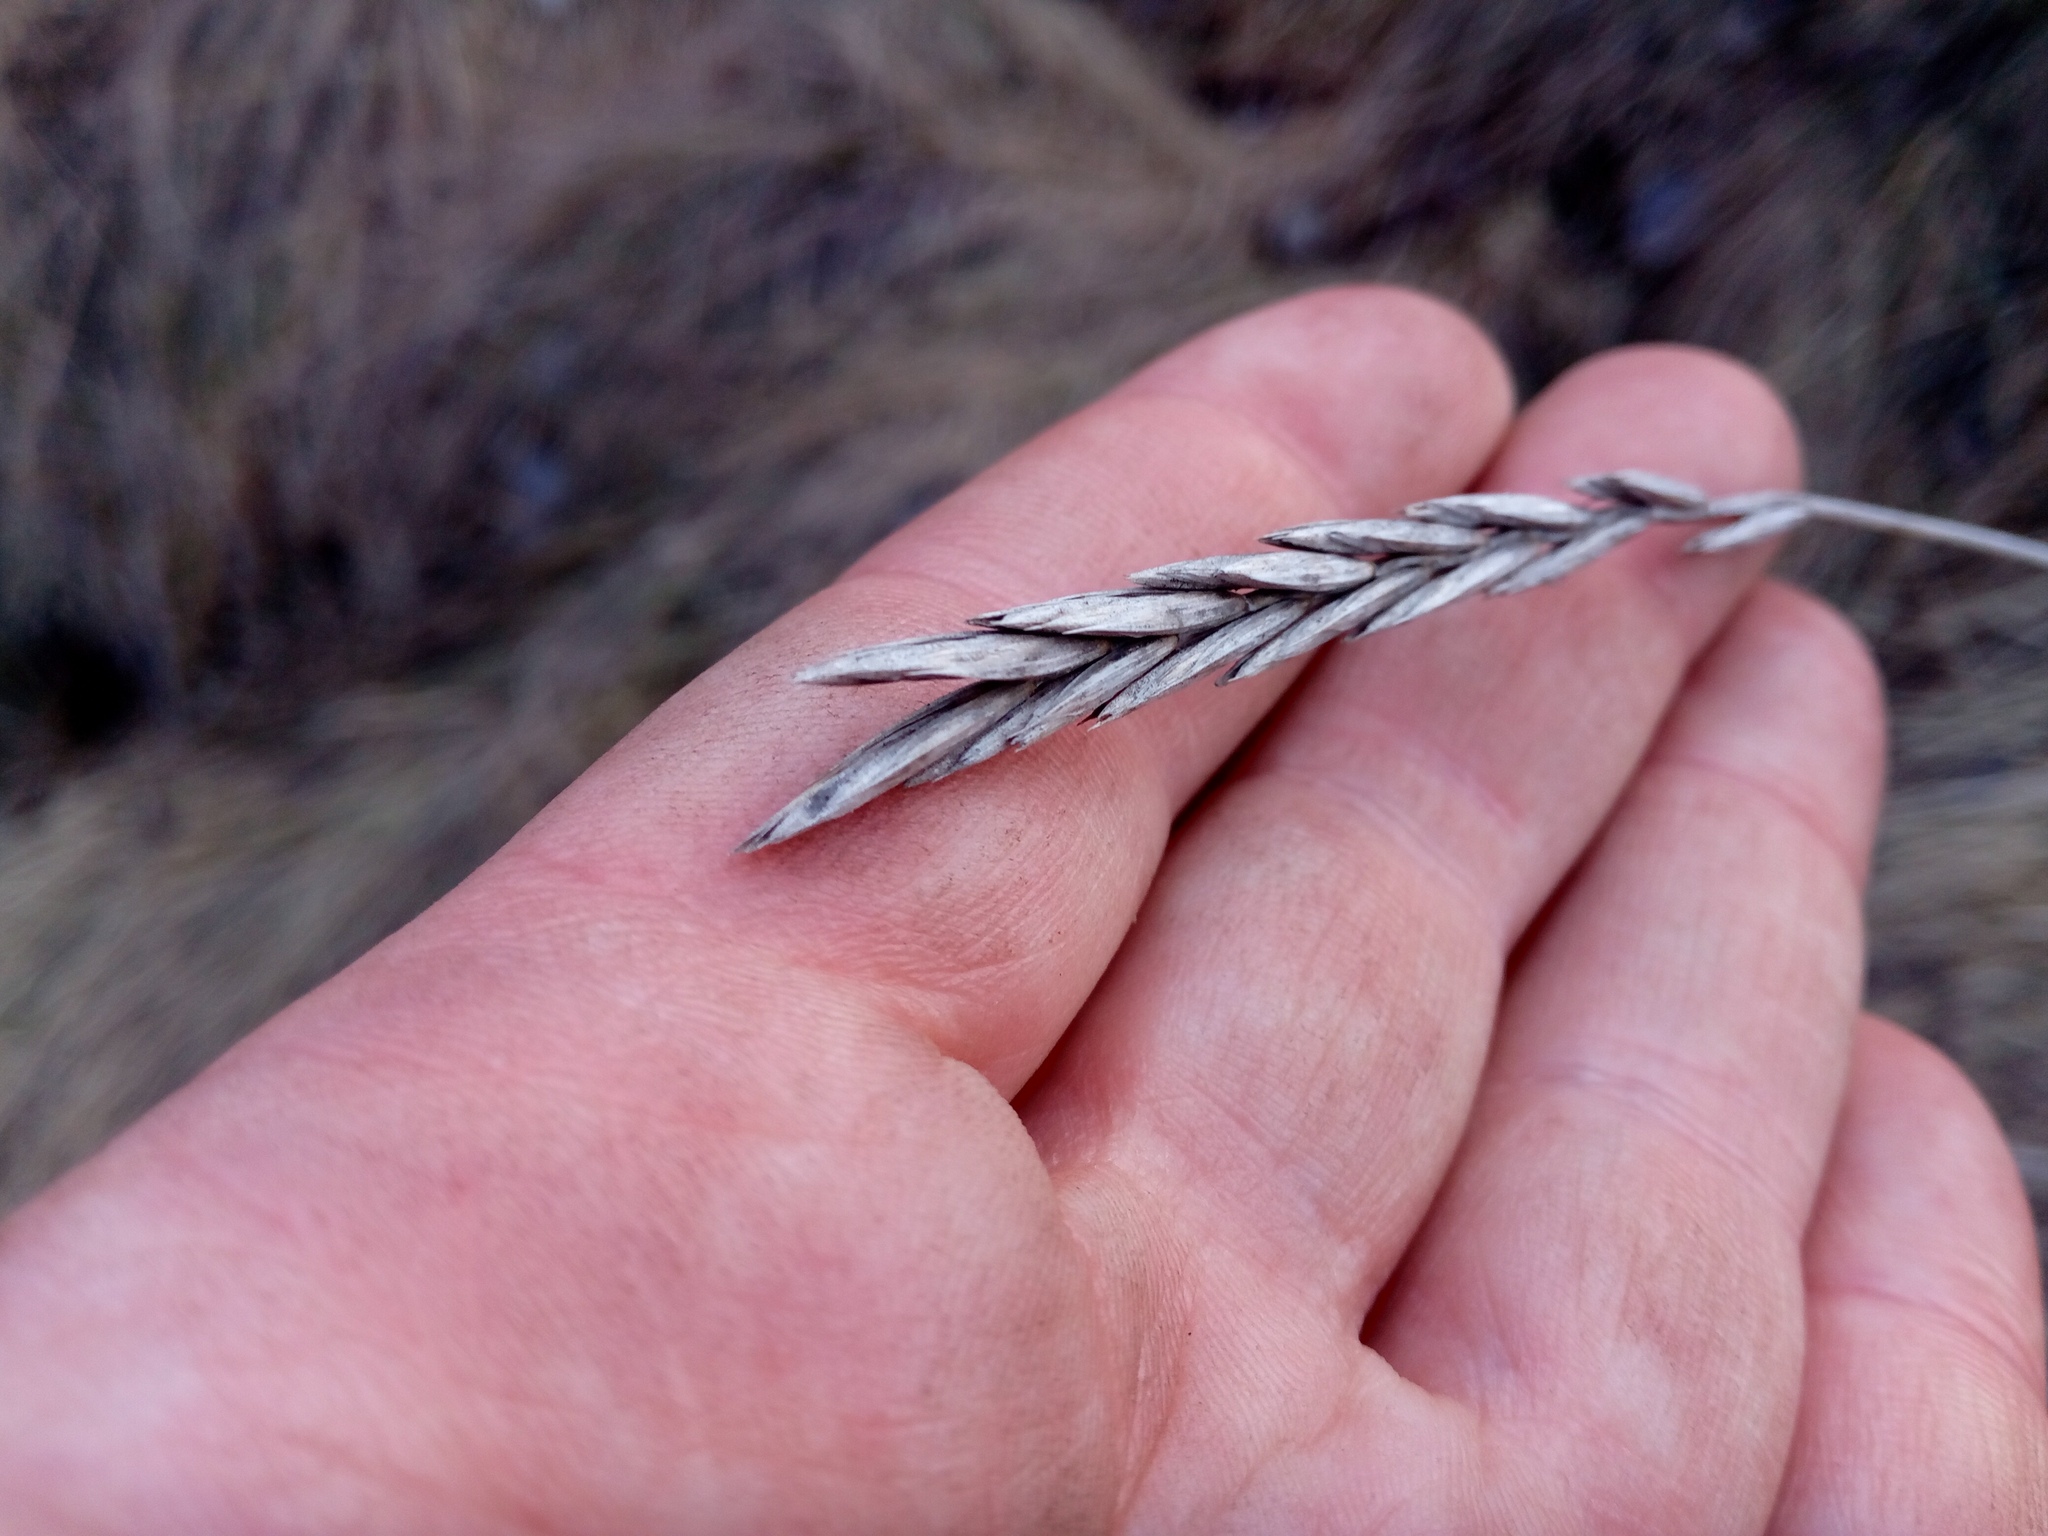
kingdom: Plantae
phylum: Tracheophyta
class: Liliopsida
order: Poales
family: Poaceae
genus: Elymus
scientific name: Elymus repens
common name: Quackgrass
